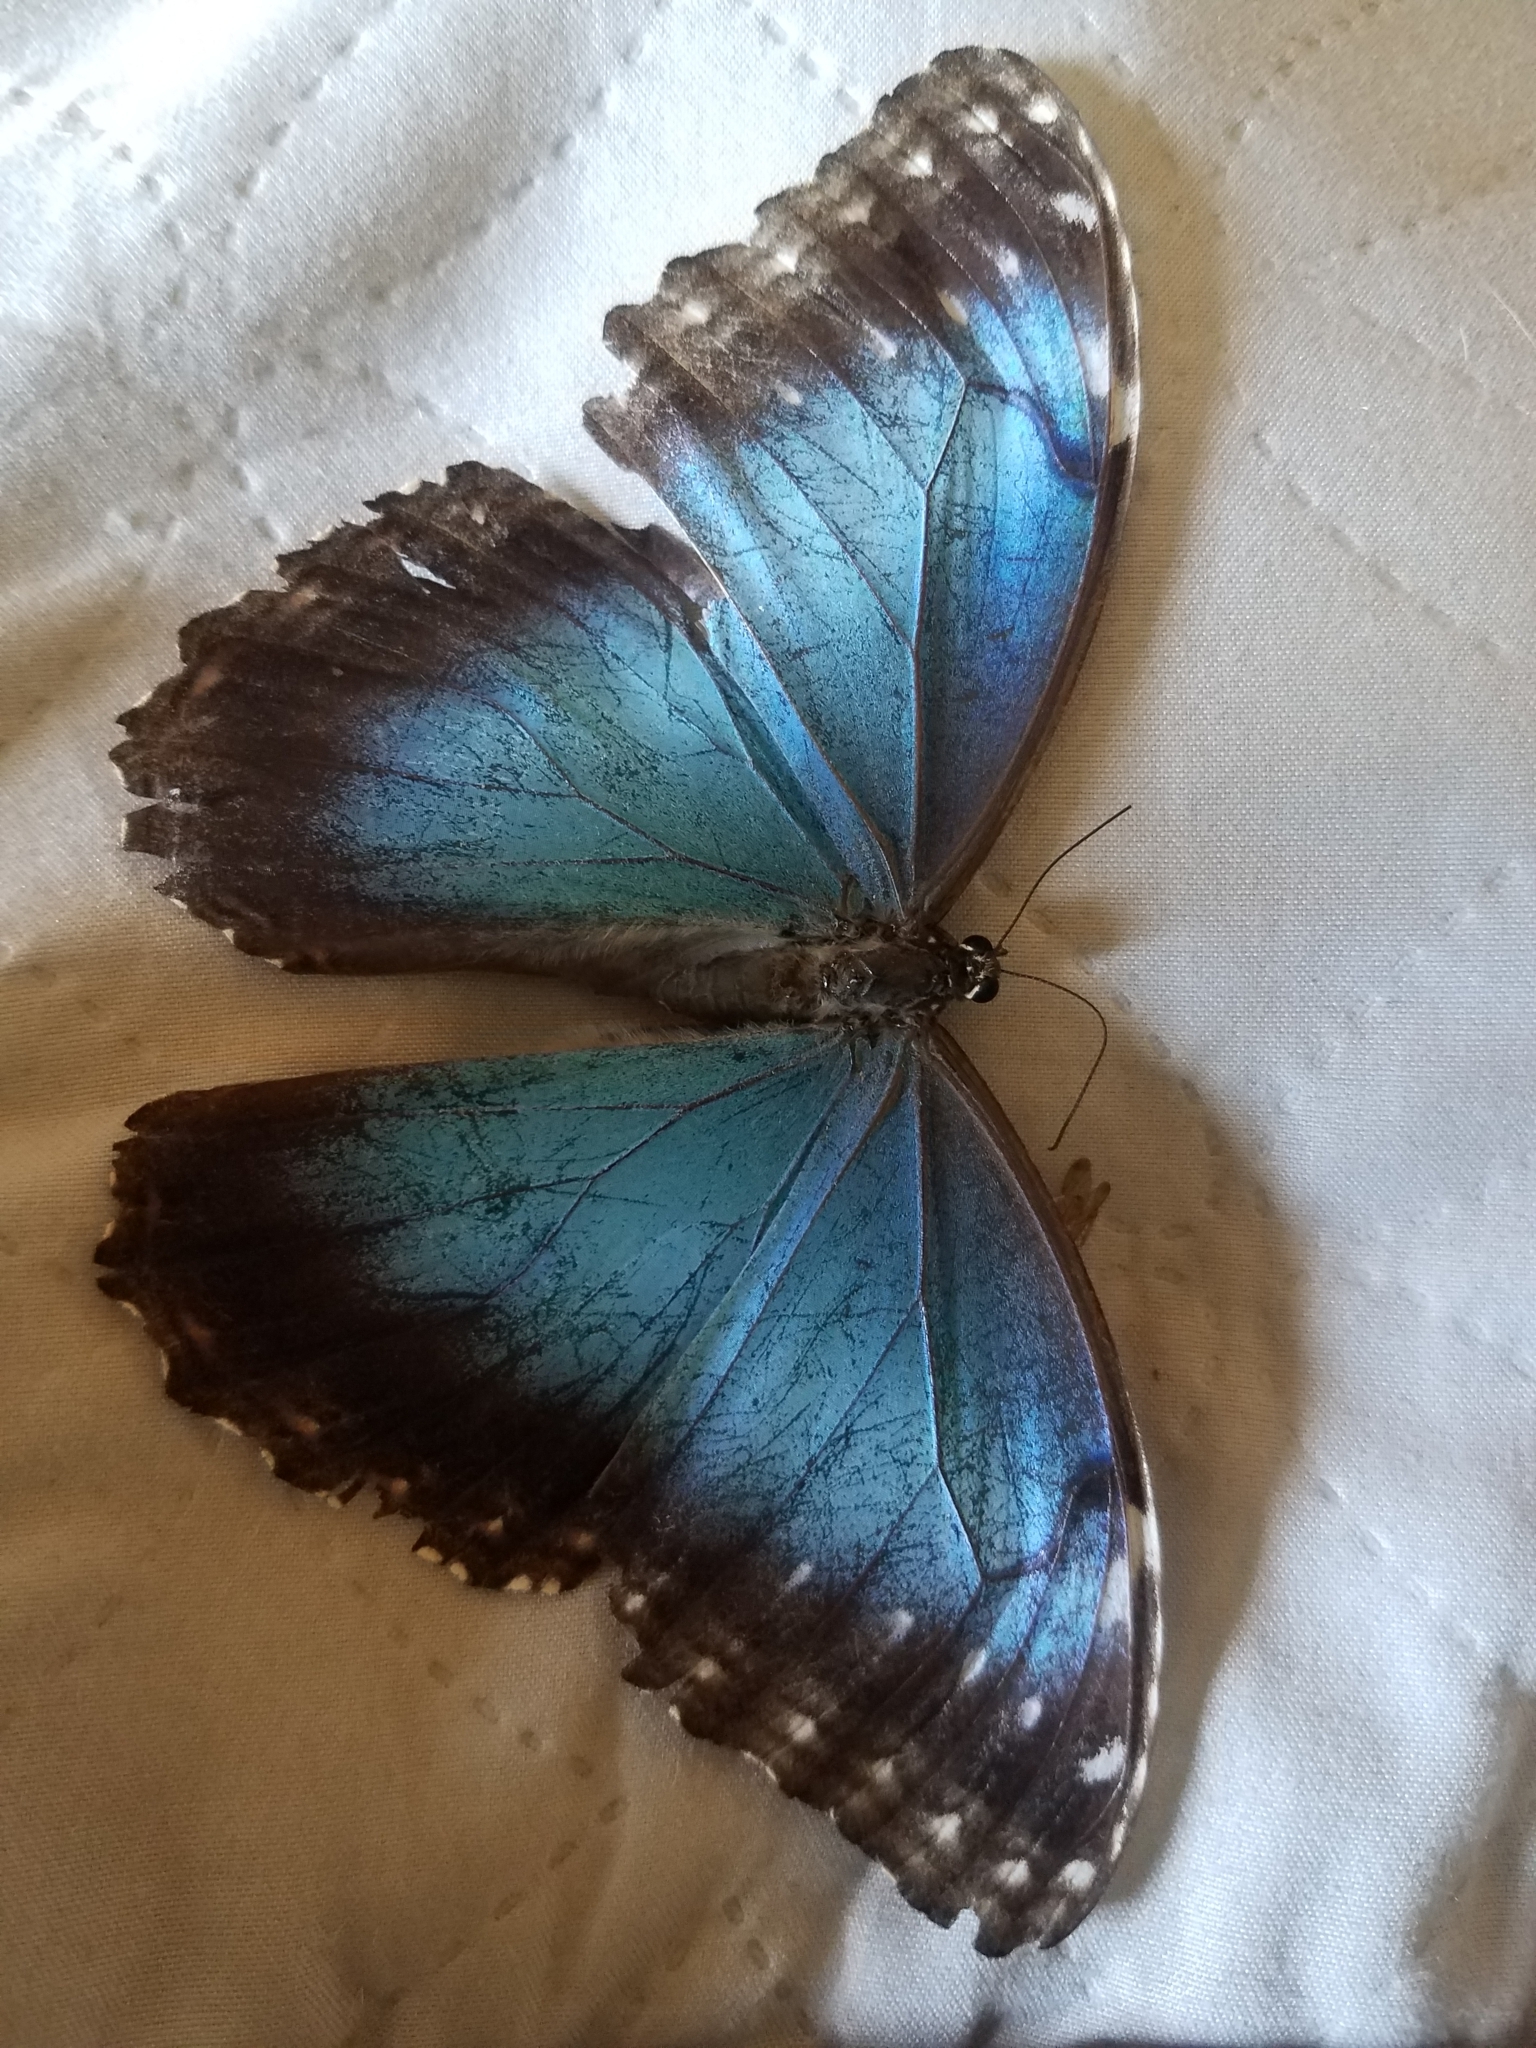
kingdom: Animalia
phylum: Arthropoda
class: Insecta
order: Lepidoptera
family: Nymphalidae
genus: Morpho
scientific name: Morpho helenor
